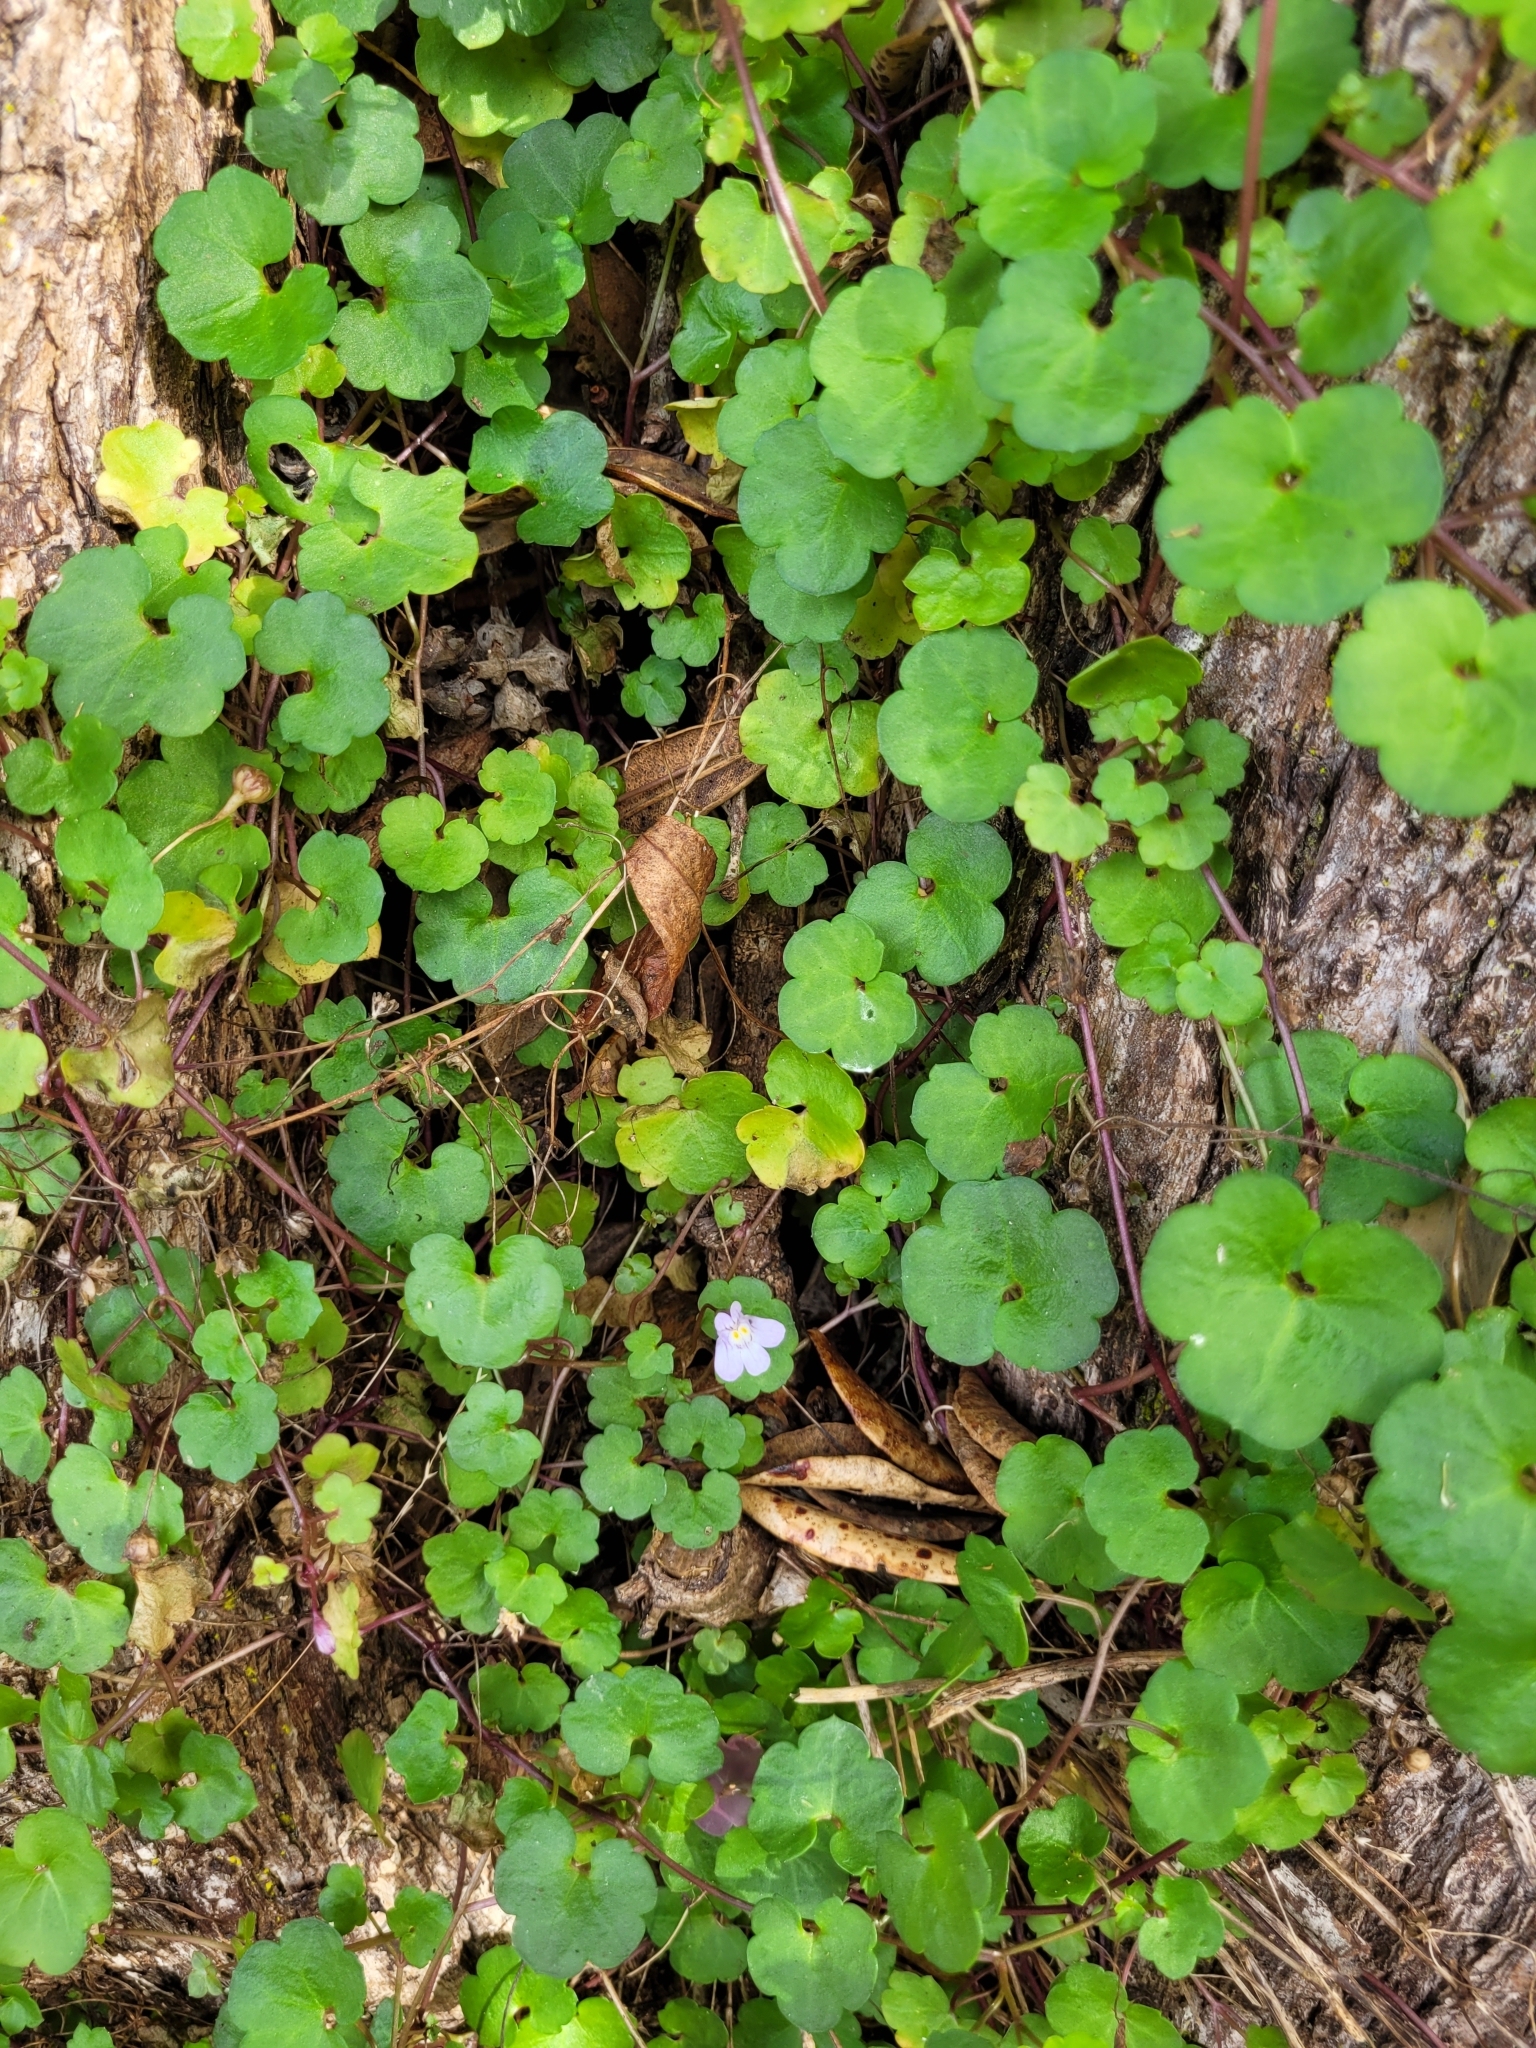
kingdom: Plantae
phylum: Tracheophyta
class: Magnoliopsida
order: Lamiales
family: Plantaginaceae
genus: Cymbalaria
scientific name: Cymbalaria muralis
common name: Ivy-leaved toadflax
